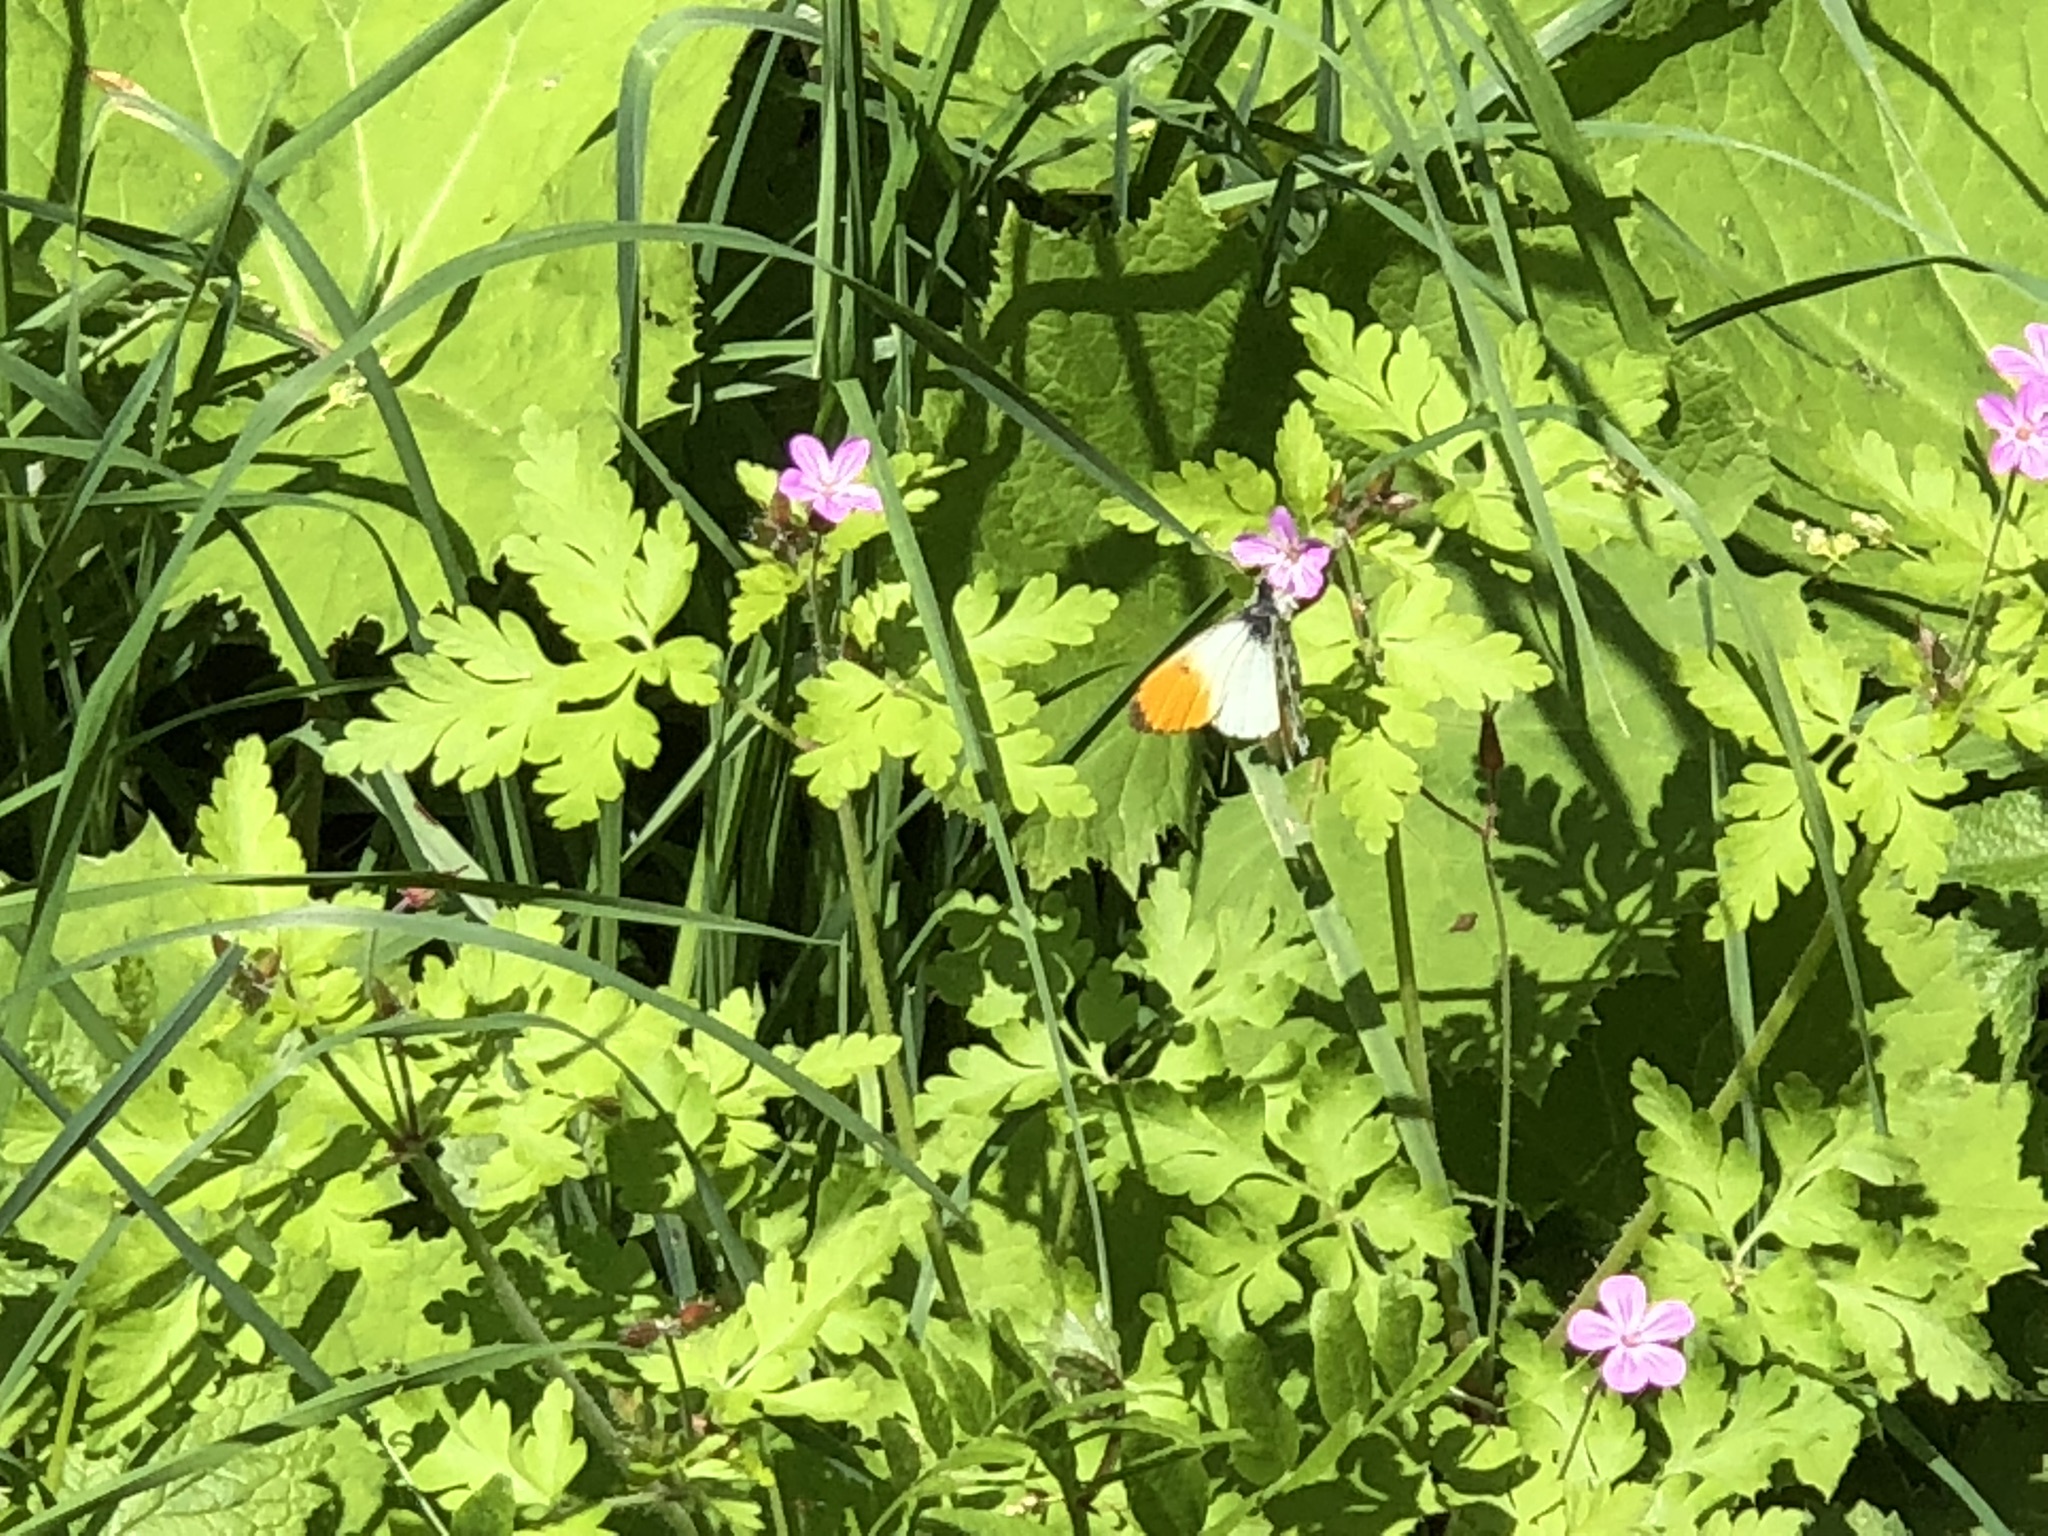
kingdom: Animalia
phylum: Arthropoda
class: Insecta
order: Lepidoptera
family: Pieridae
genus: Anthocharis
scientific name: Anthocharis cardamines
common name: Orange-tip
